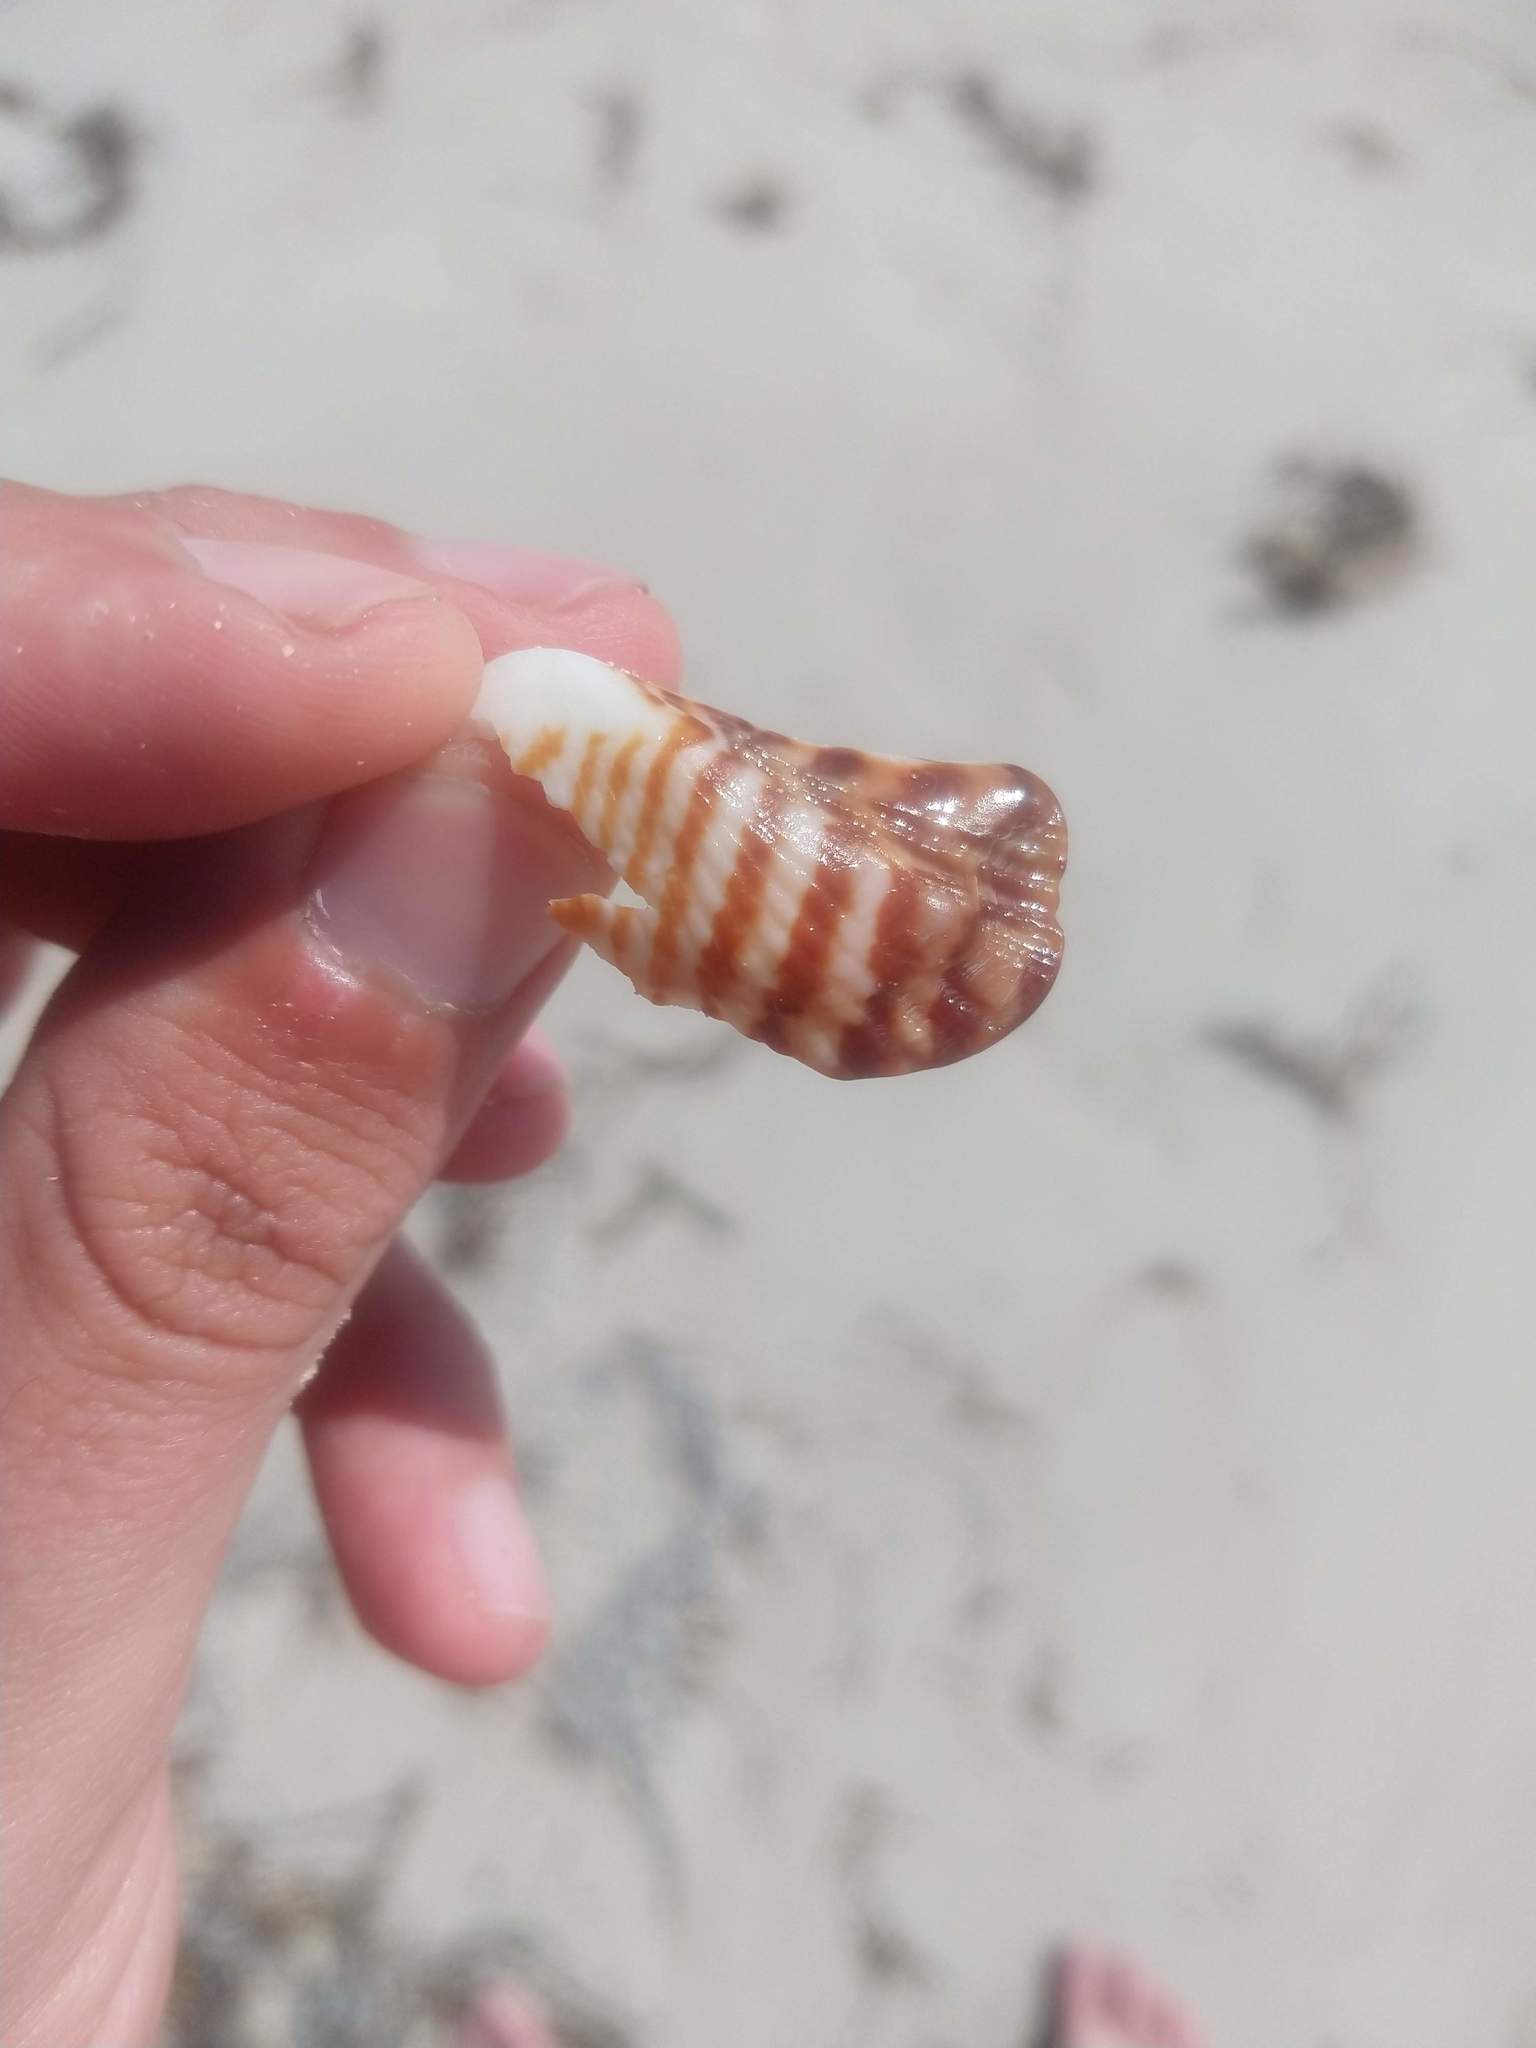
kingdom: Animalia
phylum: Mollusca
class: Bivalvia
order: Arcida
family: Arcidae
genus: Arca
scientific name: Arca zebra
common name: Atlantic turkey wing
